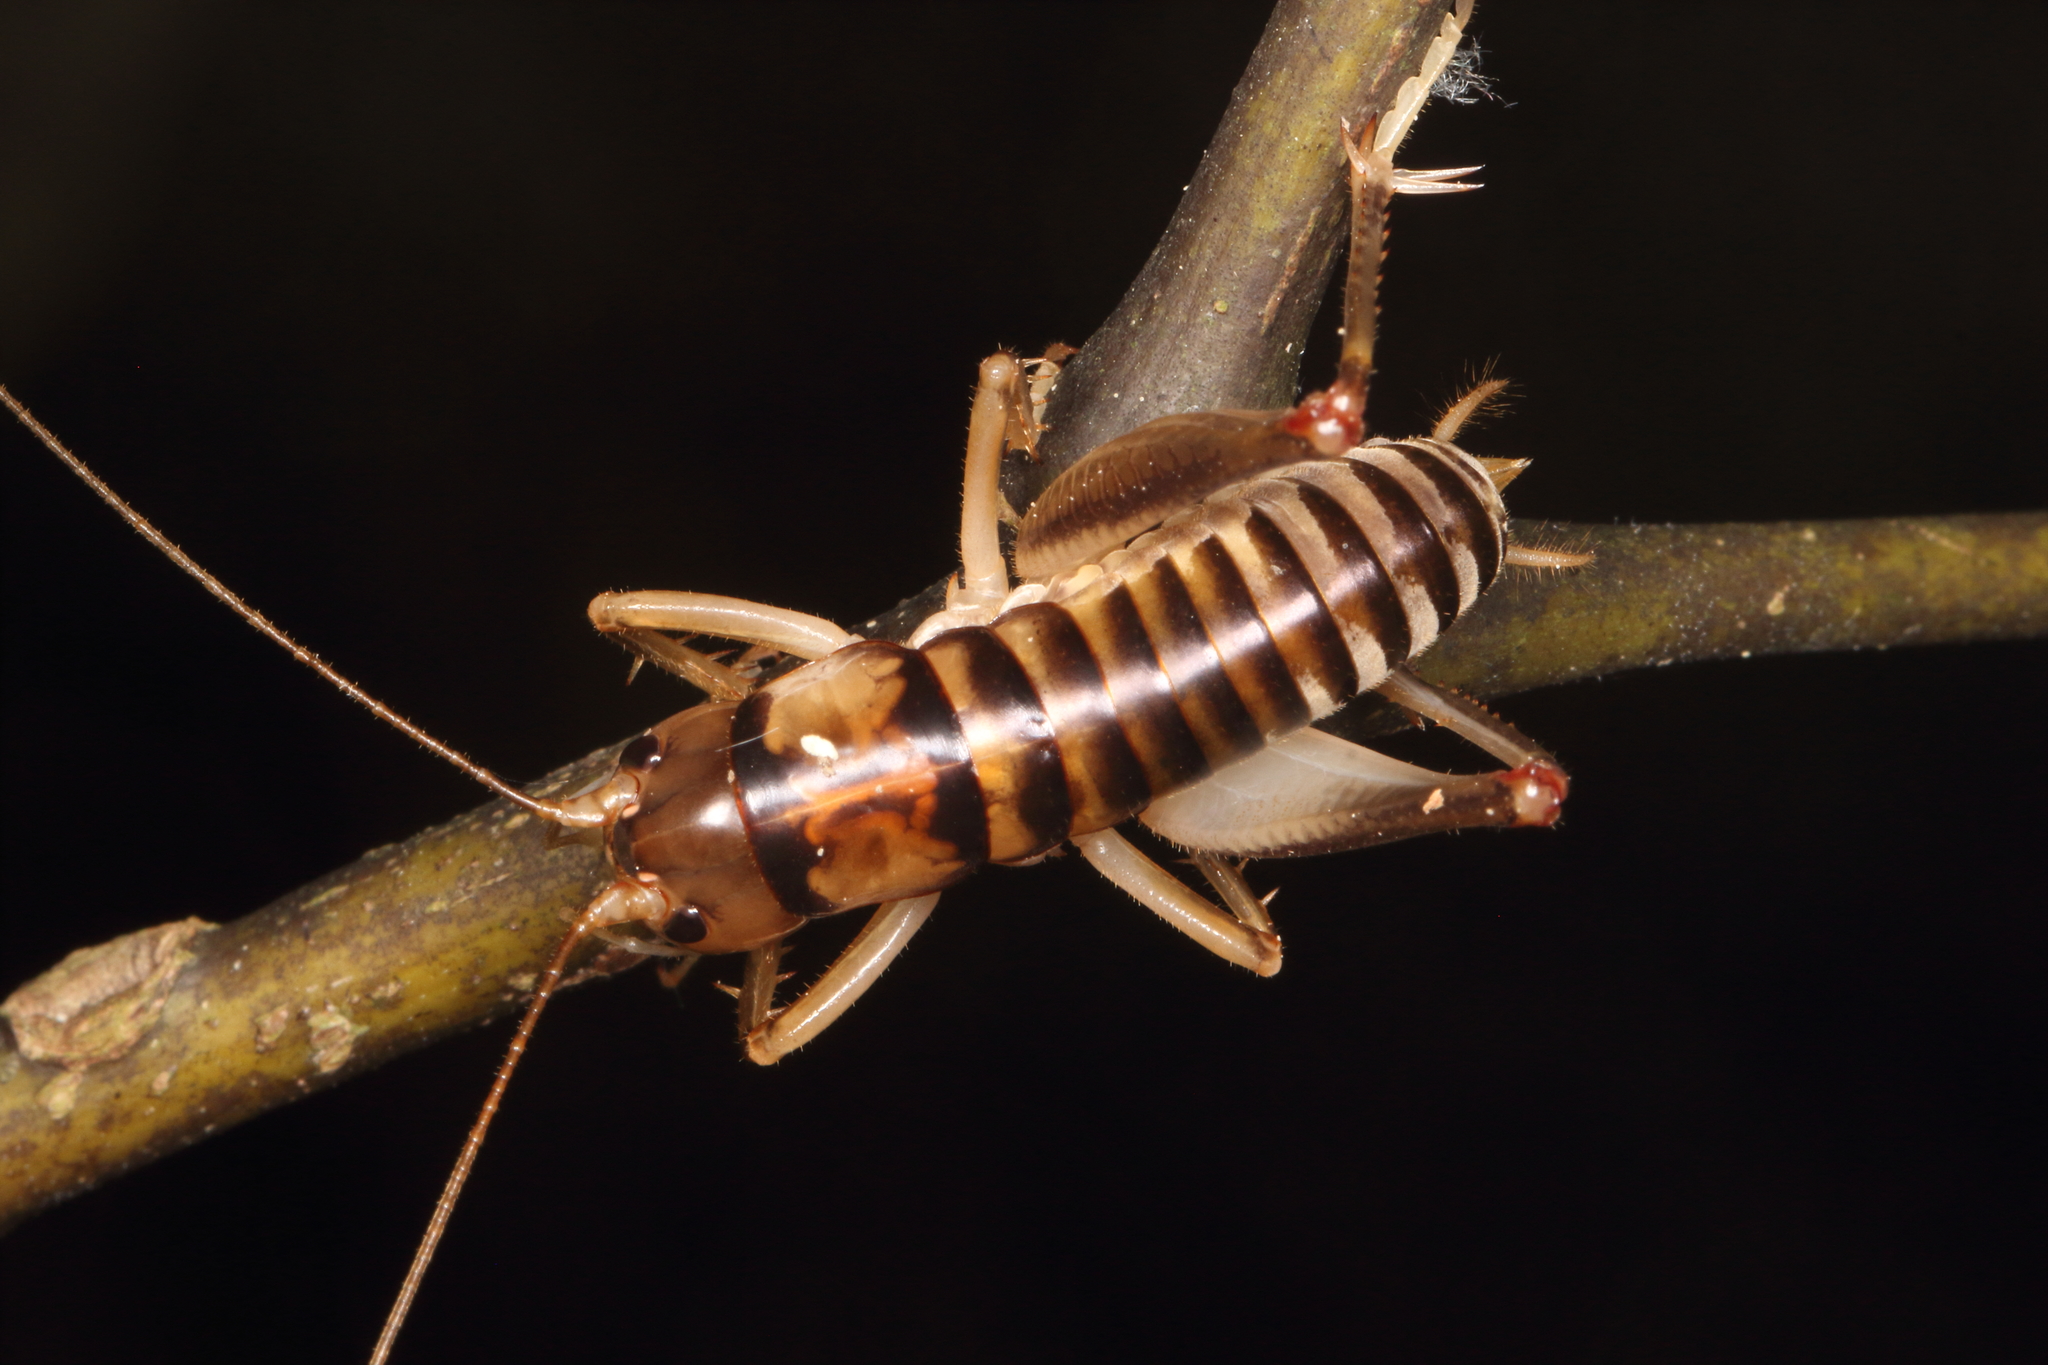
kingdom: Animalia
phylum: Arthropoda
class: Insecta
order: Orthoptera
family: Anostostomatidae
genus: Hemiandrus
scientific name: Hemiandrus sterope
